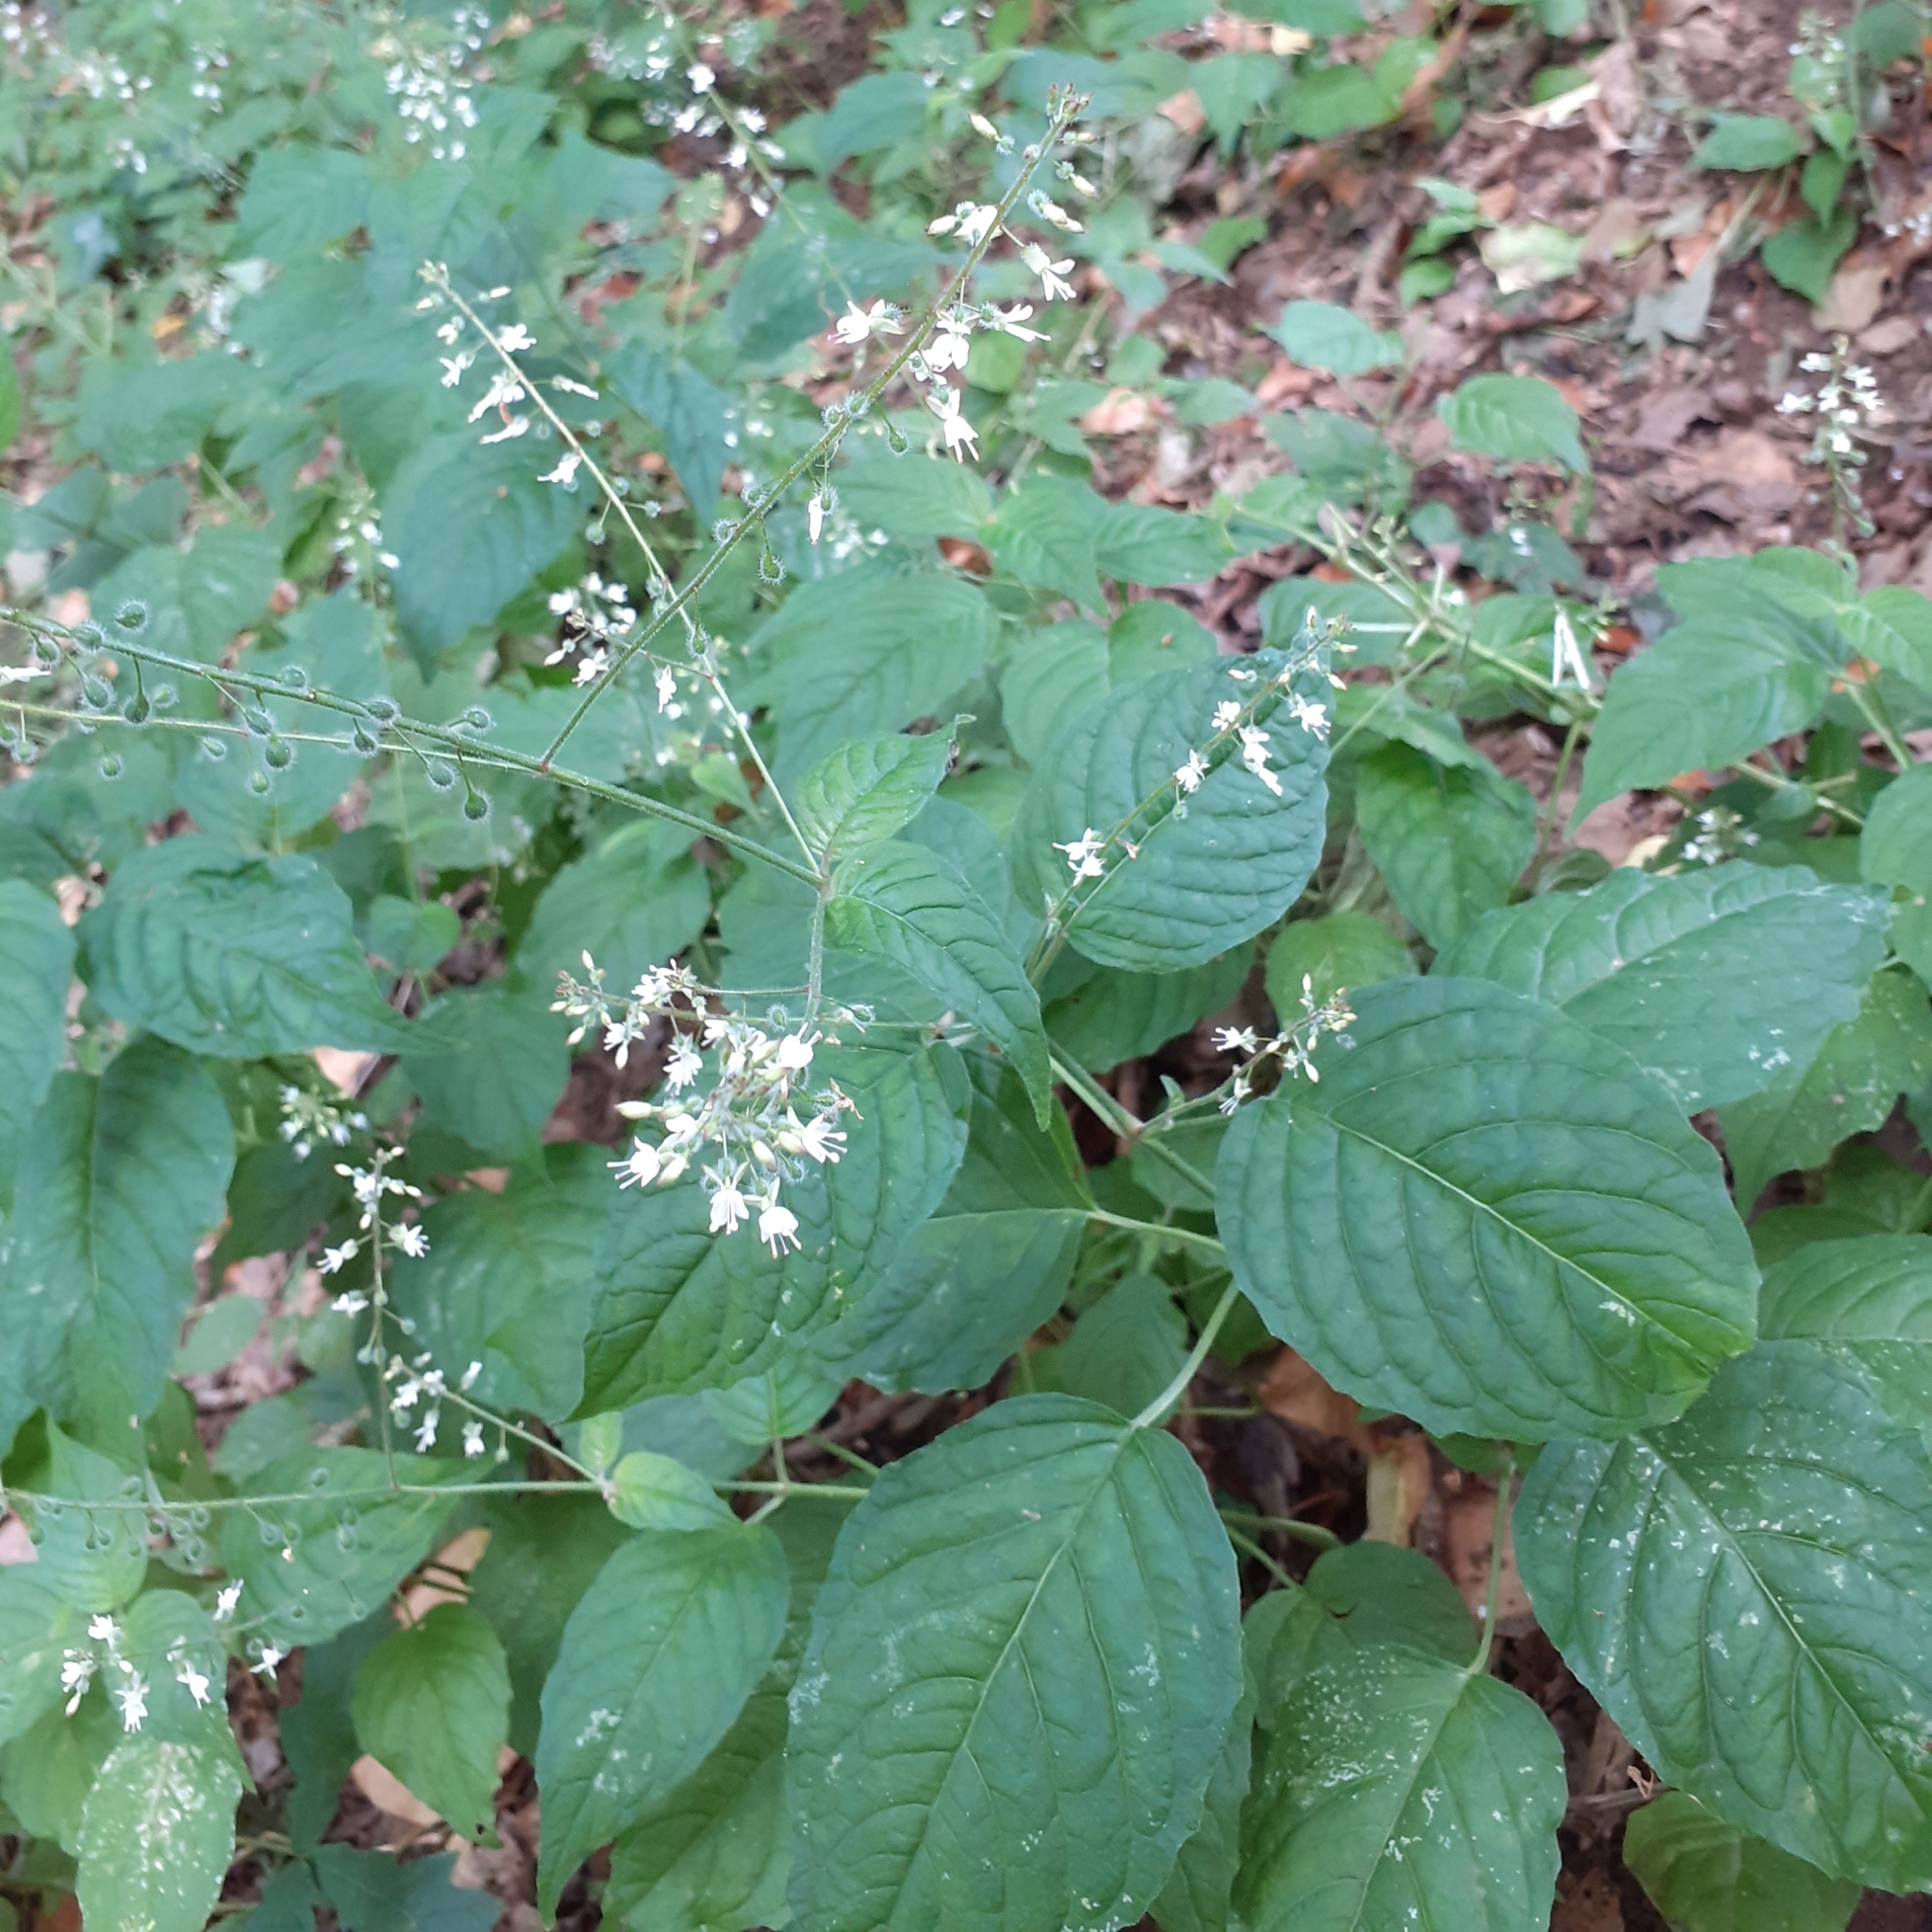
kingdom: Plantae
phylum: Tracheophyta
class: Magnoliopsida
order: Myrtales
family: Onagraceae
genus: Circaea
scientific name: Circaea lutetiana
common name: Enchanter's-nightshade
